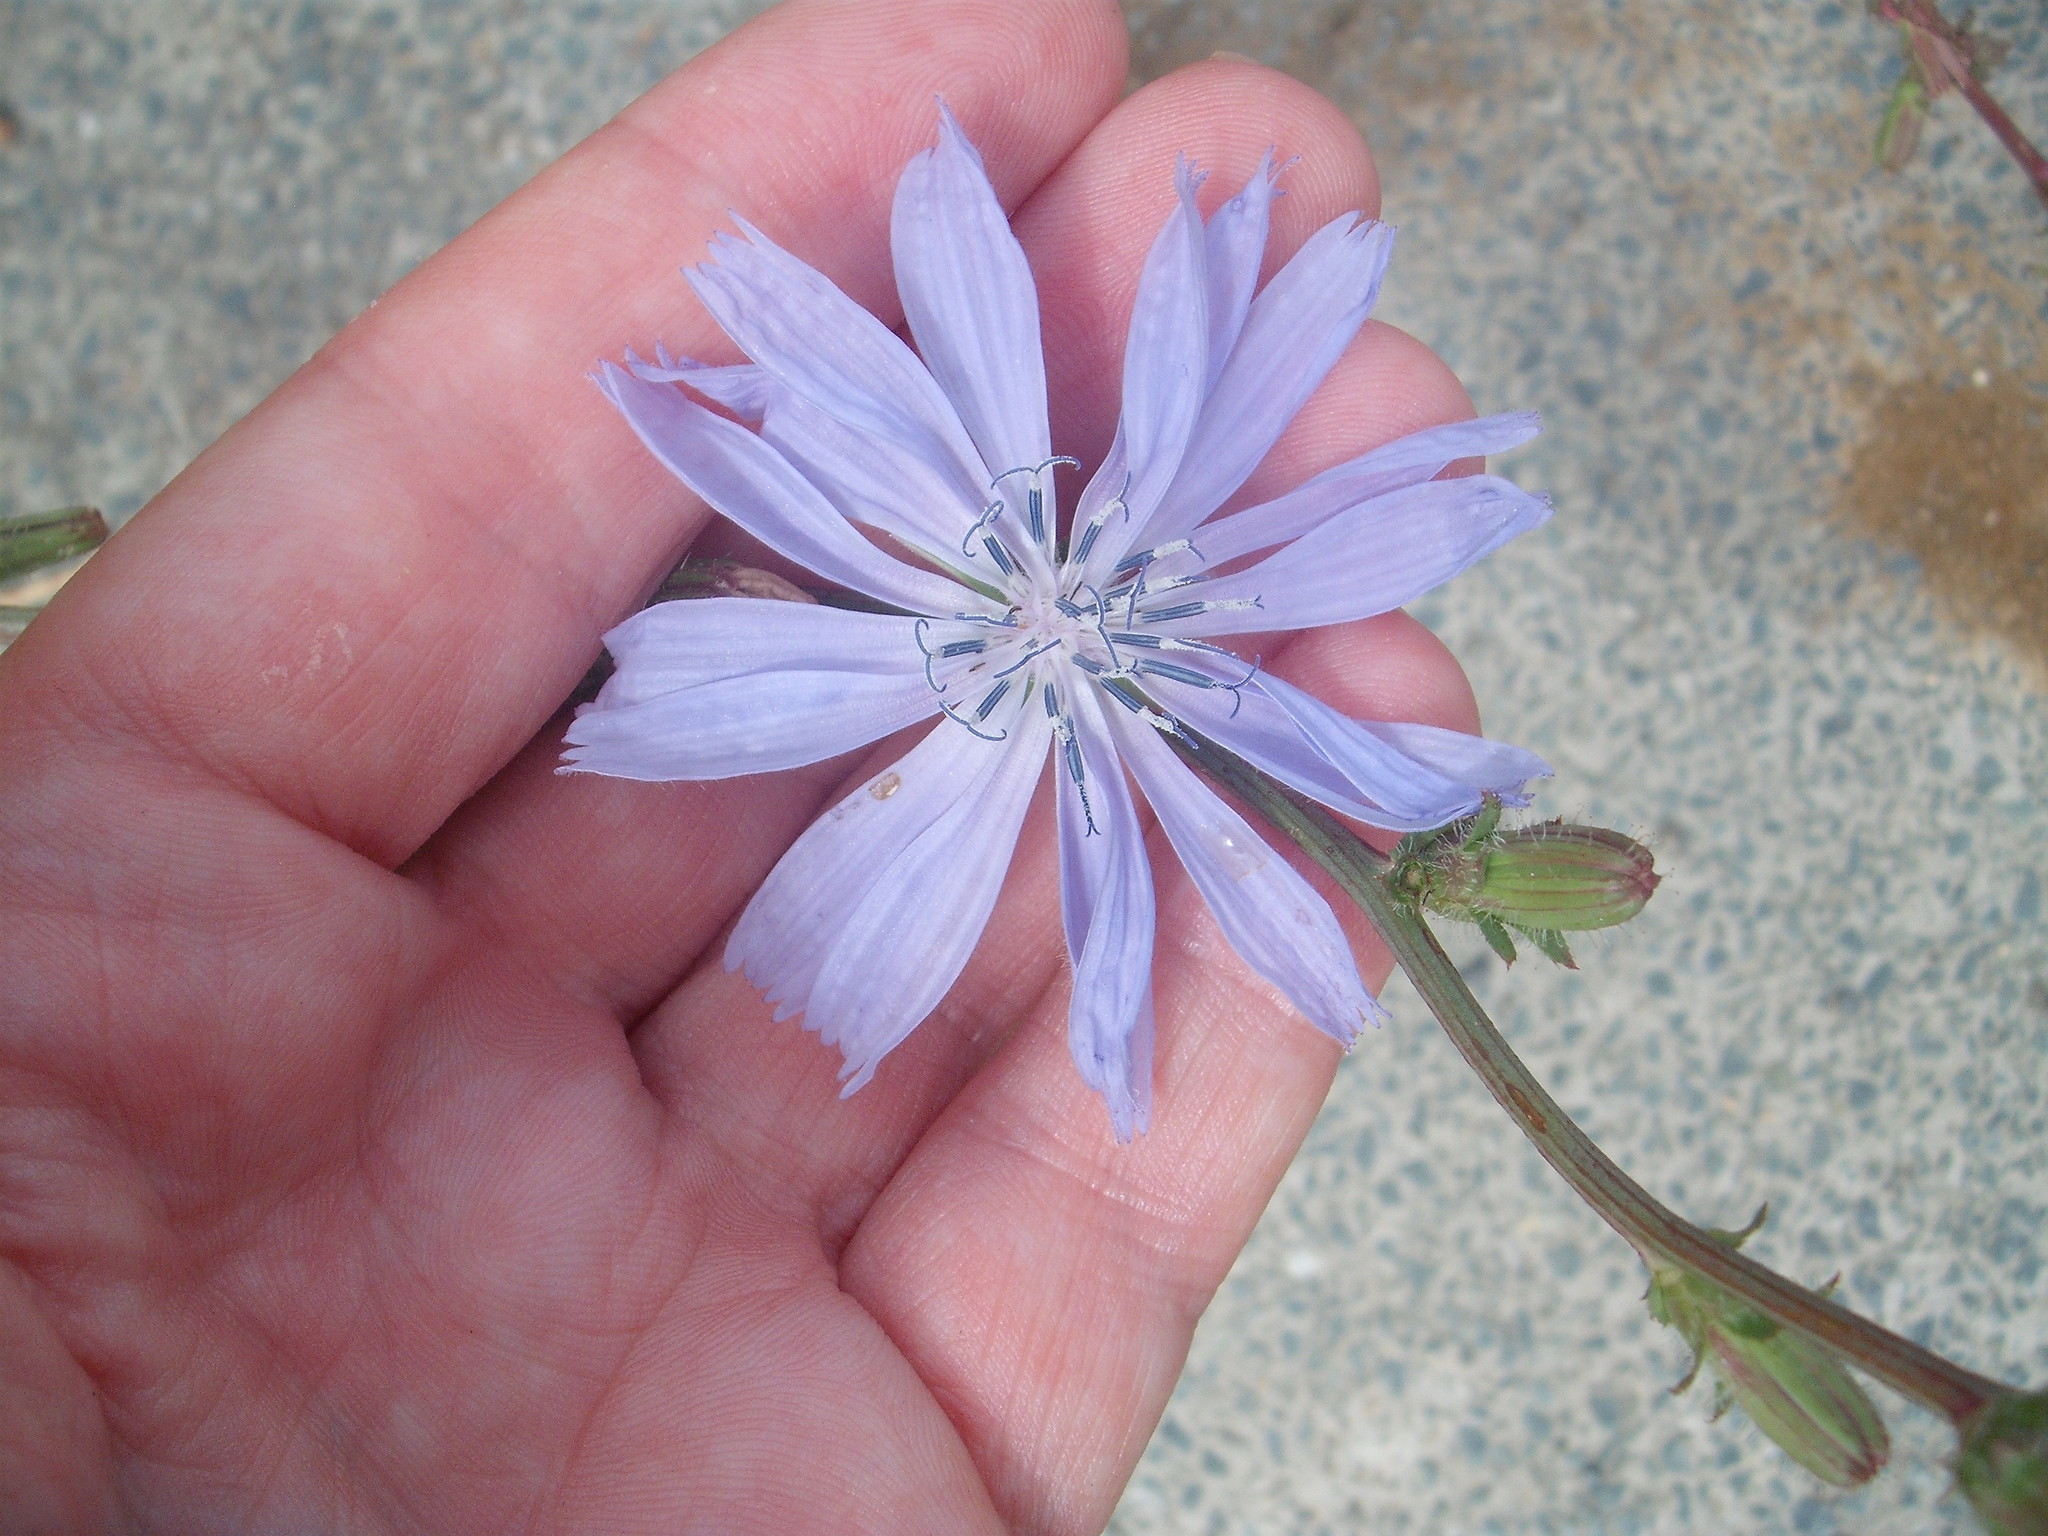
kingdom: Plantae
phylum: Tracheophyta
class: Magnoliopsida
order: Asterales
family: Asteraceae
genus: Cichorium
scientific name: Cichorium intybus
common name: Chicory
